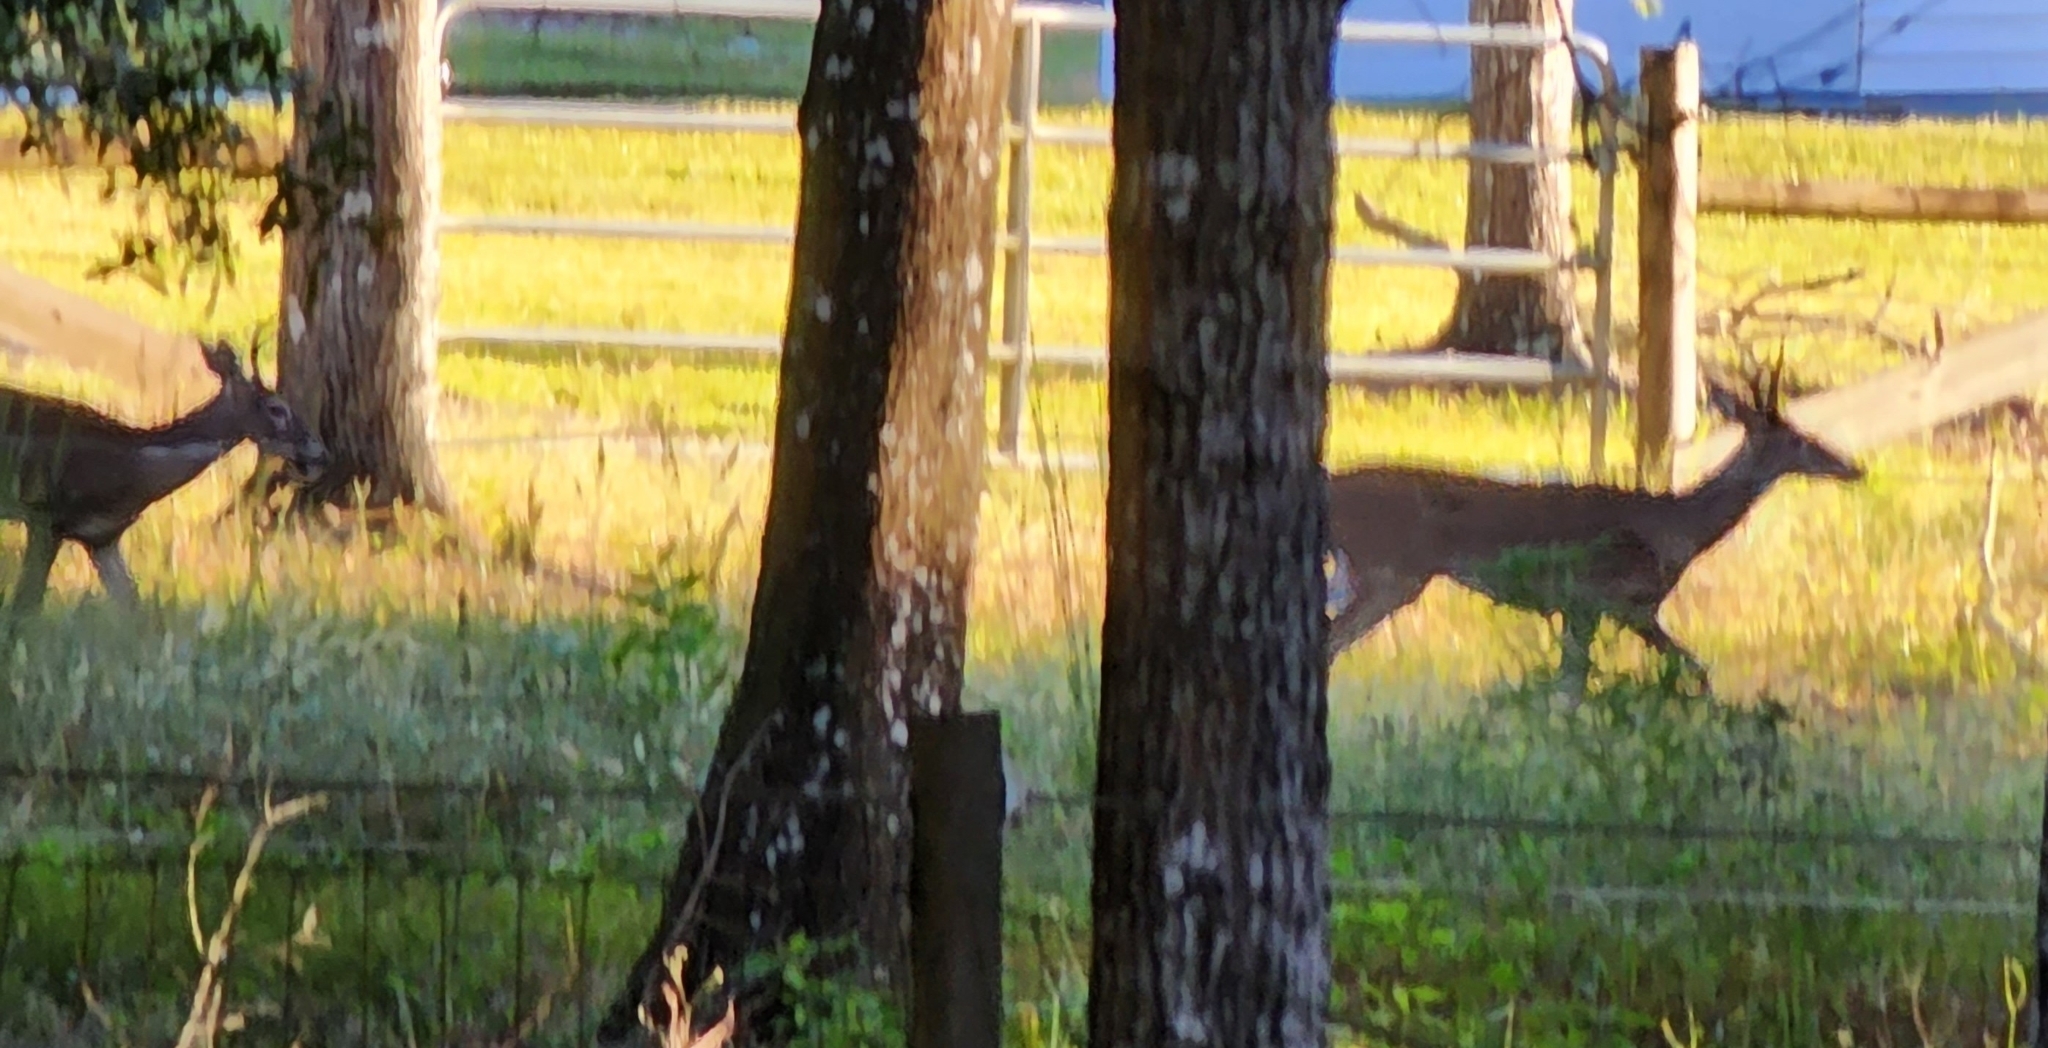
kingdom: Animalia
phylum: Chordata
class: Mammalia
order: Artiodactyla
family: Cervidae
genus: Odocoileus
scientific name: Odocoileus virginianus
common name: White-tailed deer
